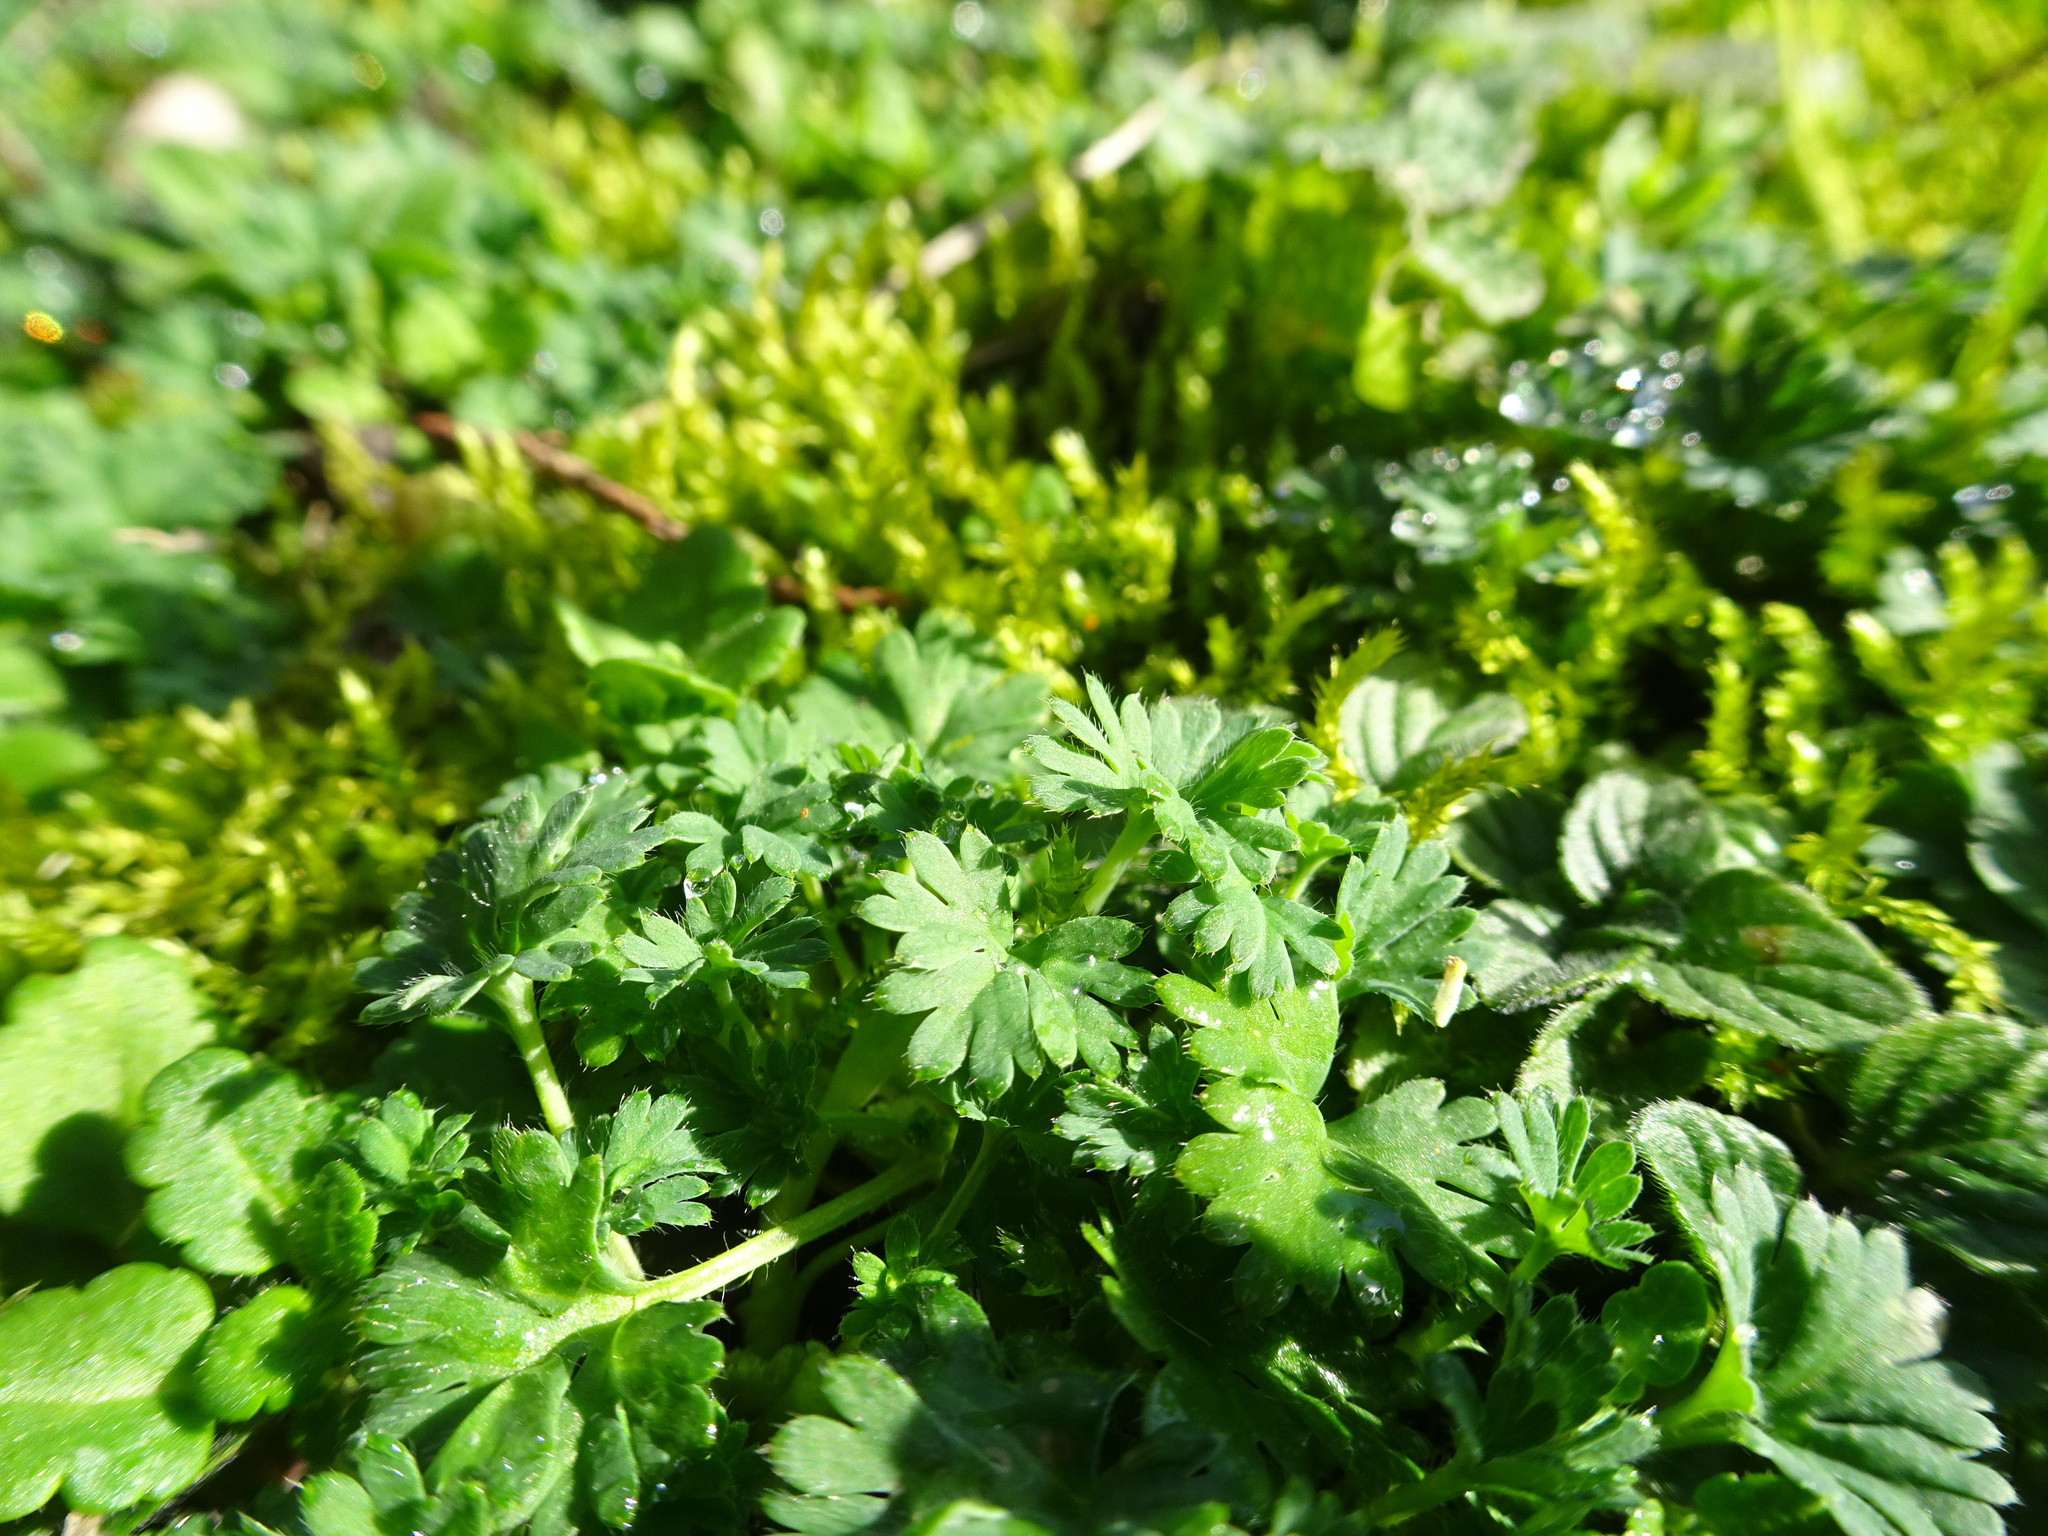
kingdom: Plantae
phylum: Tracheophyta
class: Magnoliopsida
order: Rosales
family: Rosaceae
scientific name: Rosaceae
